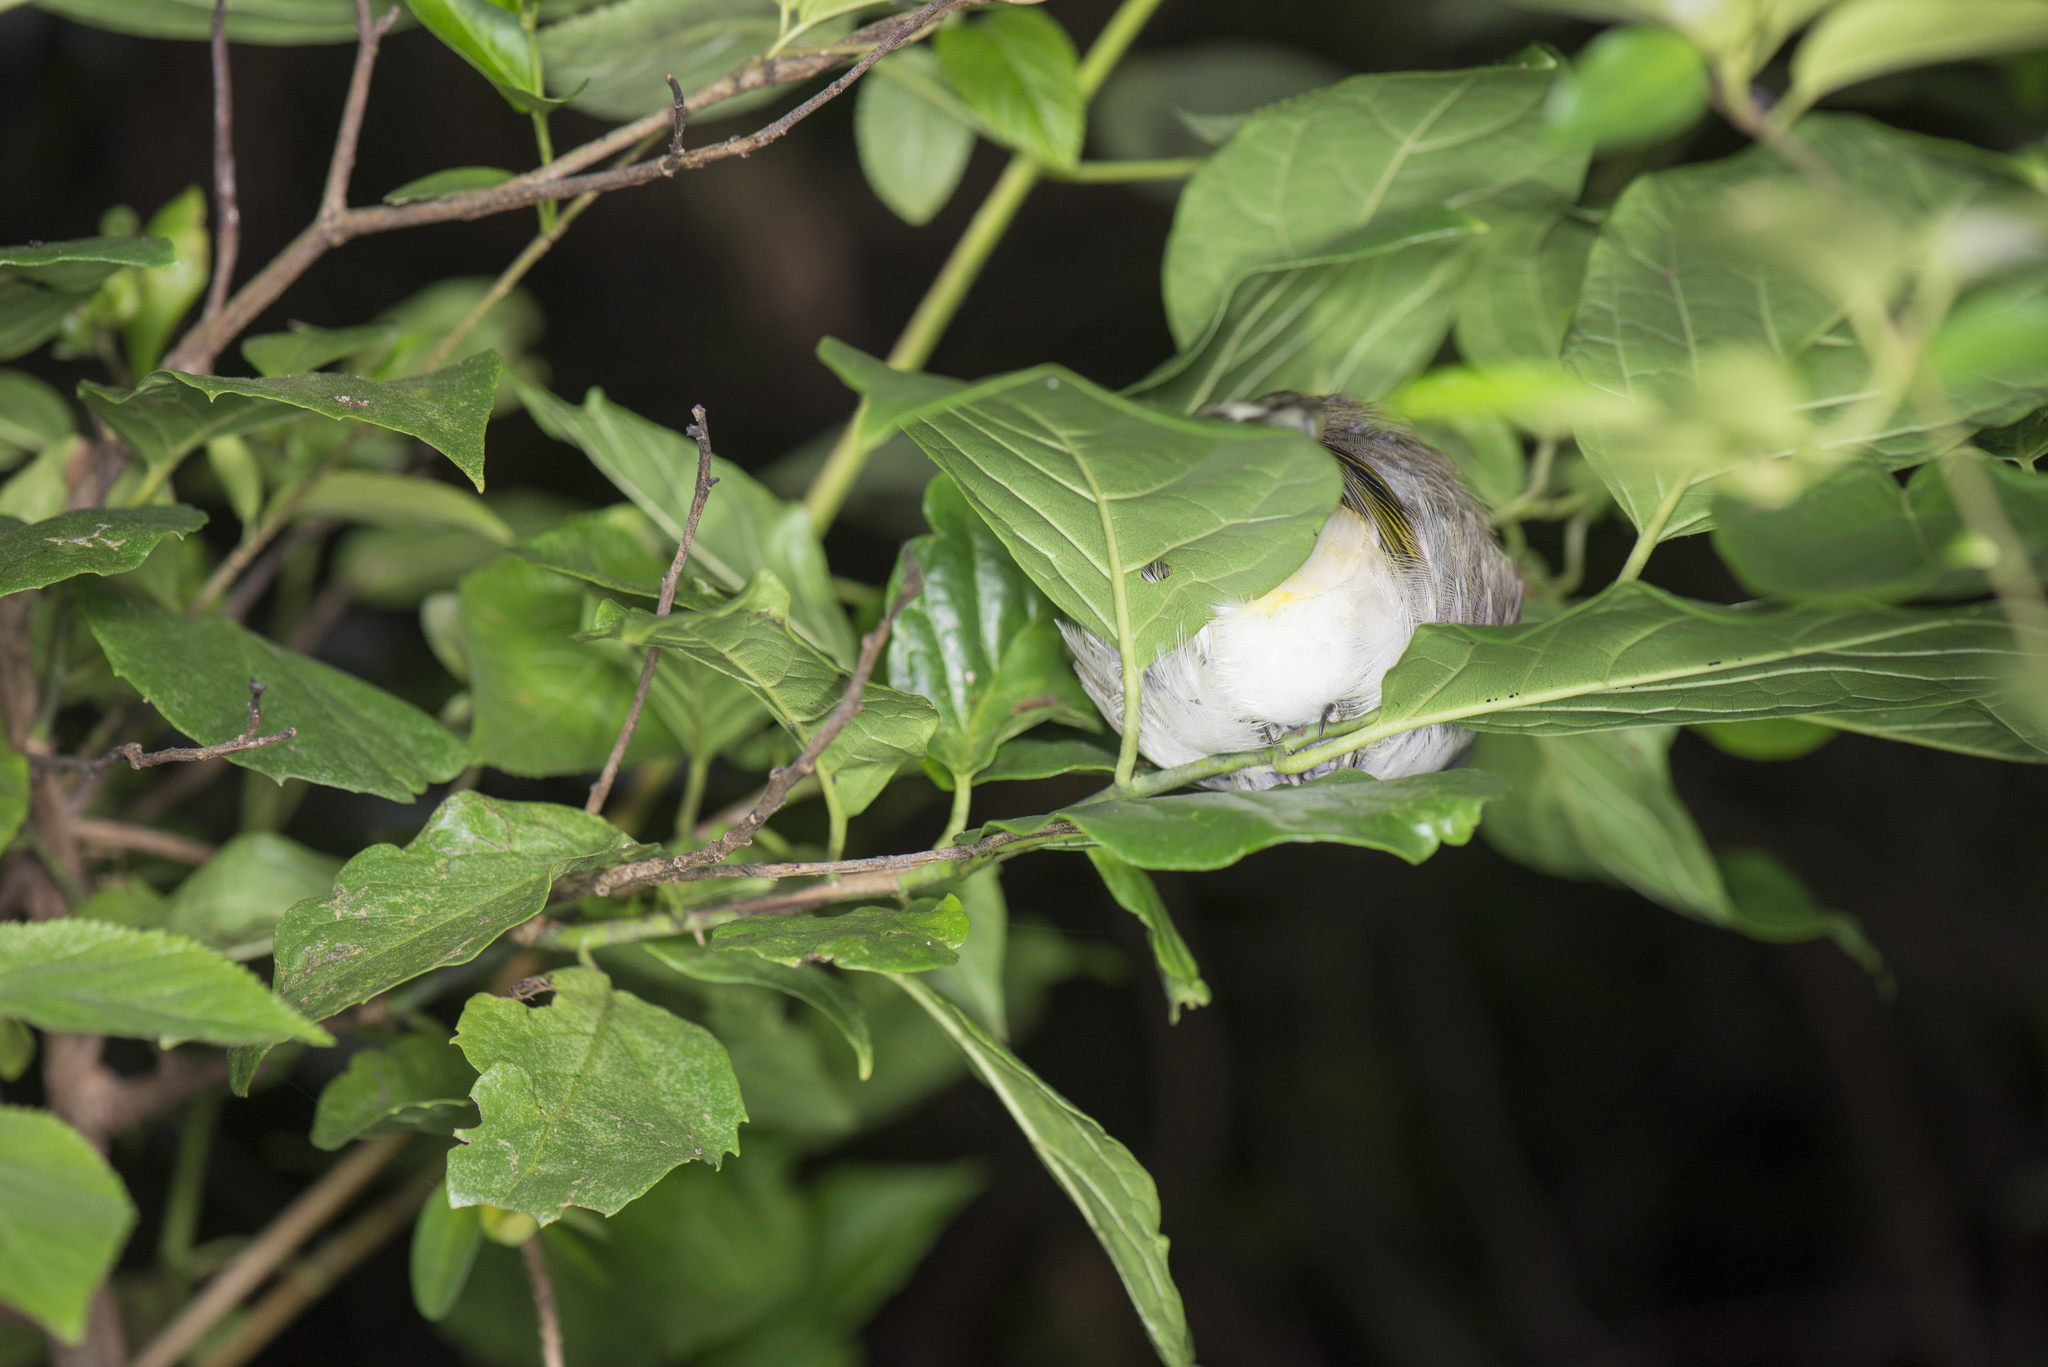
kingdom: Animalia
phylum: Chordata
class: Aves
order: Passeriformes
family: Pycnonotidae
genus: Pycnonotus
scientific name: Pycnonotus sinensis
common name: Light-vented bulbul
